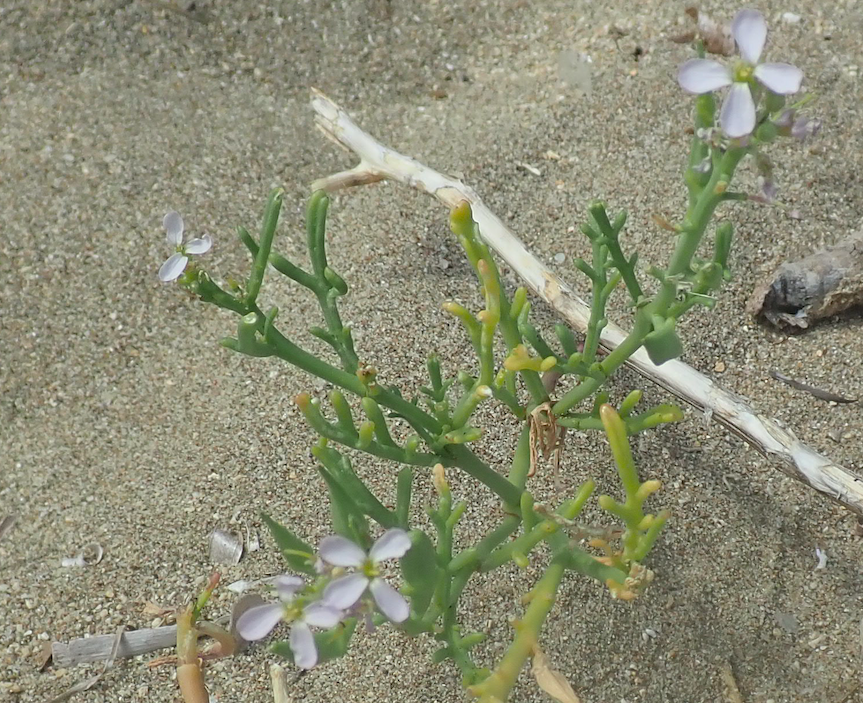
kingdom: Plantae
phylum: Tracheophyta
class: Magnoliopsida
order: Brassicales
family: Brassicaceae
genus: Cakile
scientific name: Cakile maritima
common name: Sea rocket
